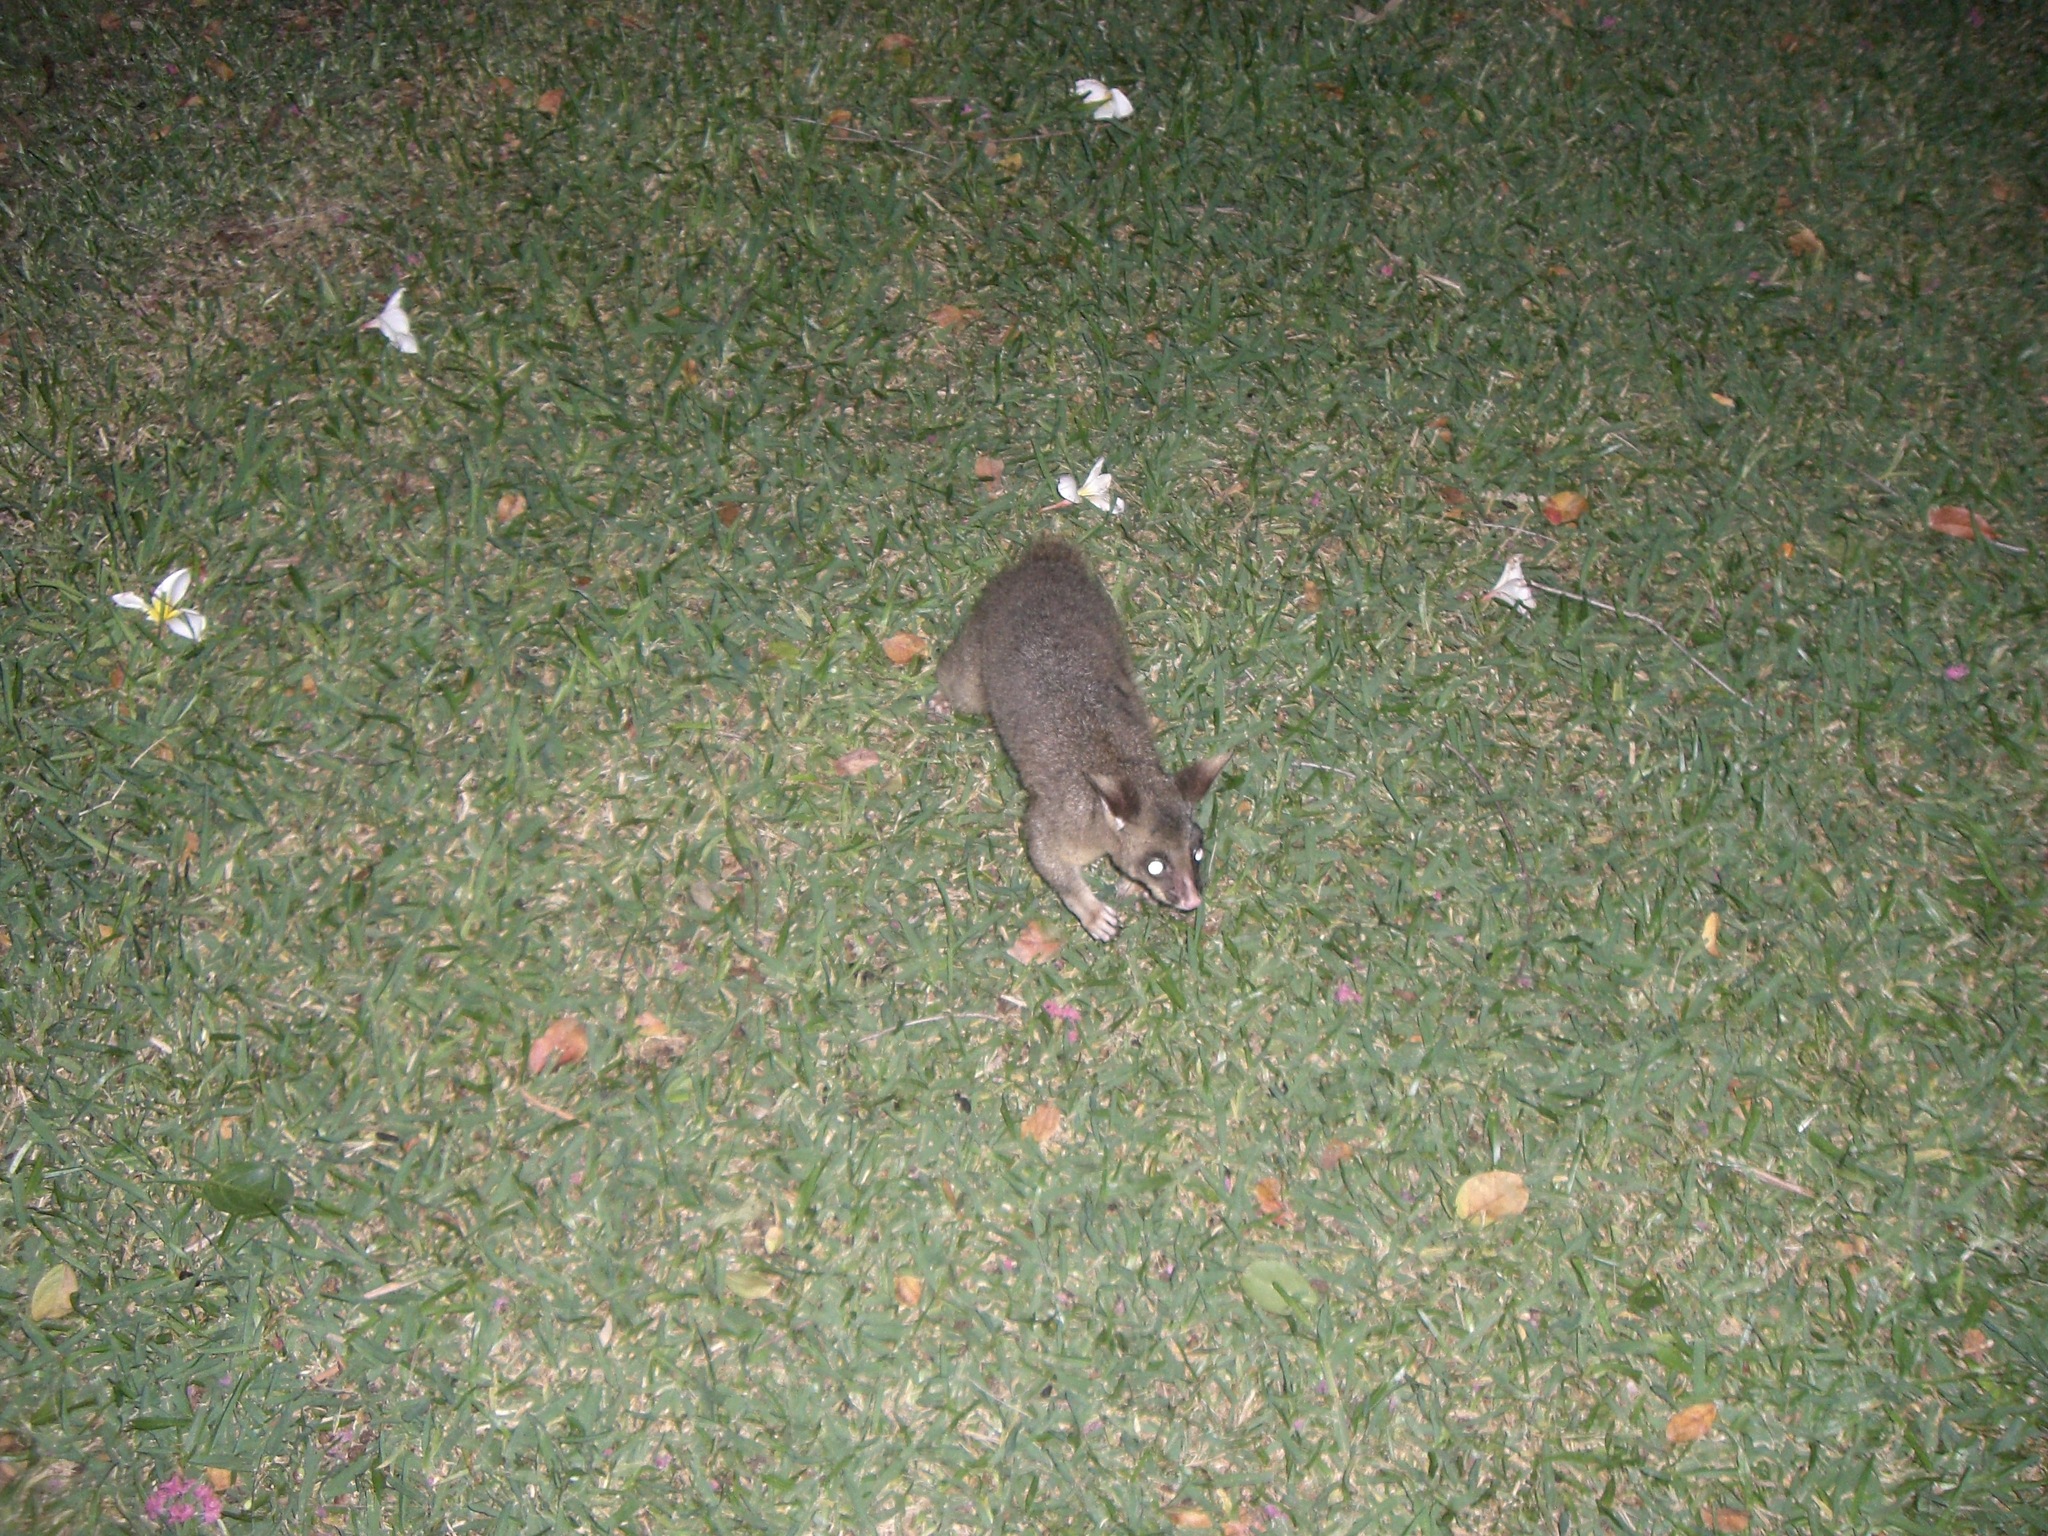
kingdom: Animalia
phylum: Chordata
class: Mammalia
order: Diprotodontia
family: Phalangeridae
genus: Trichosurus
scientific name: Trichosurus vulpecula
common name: Common brushtail
